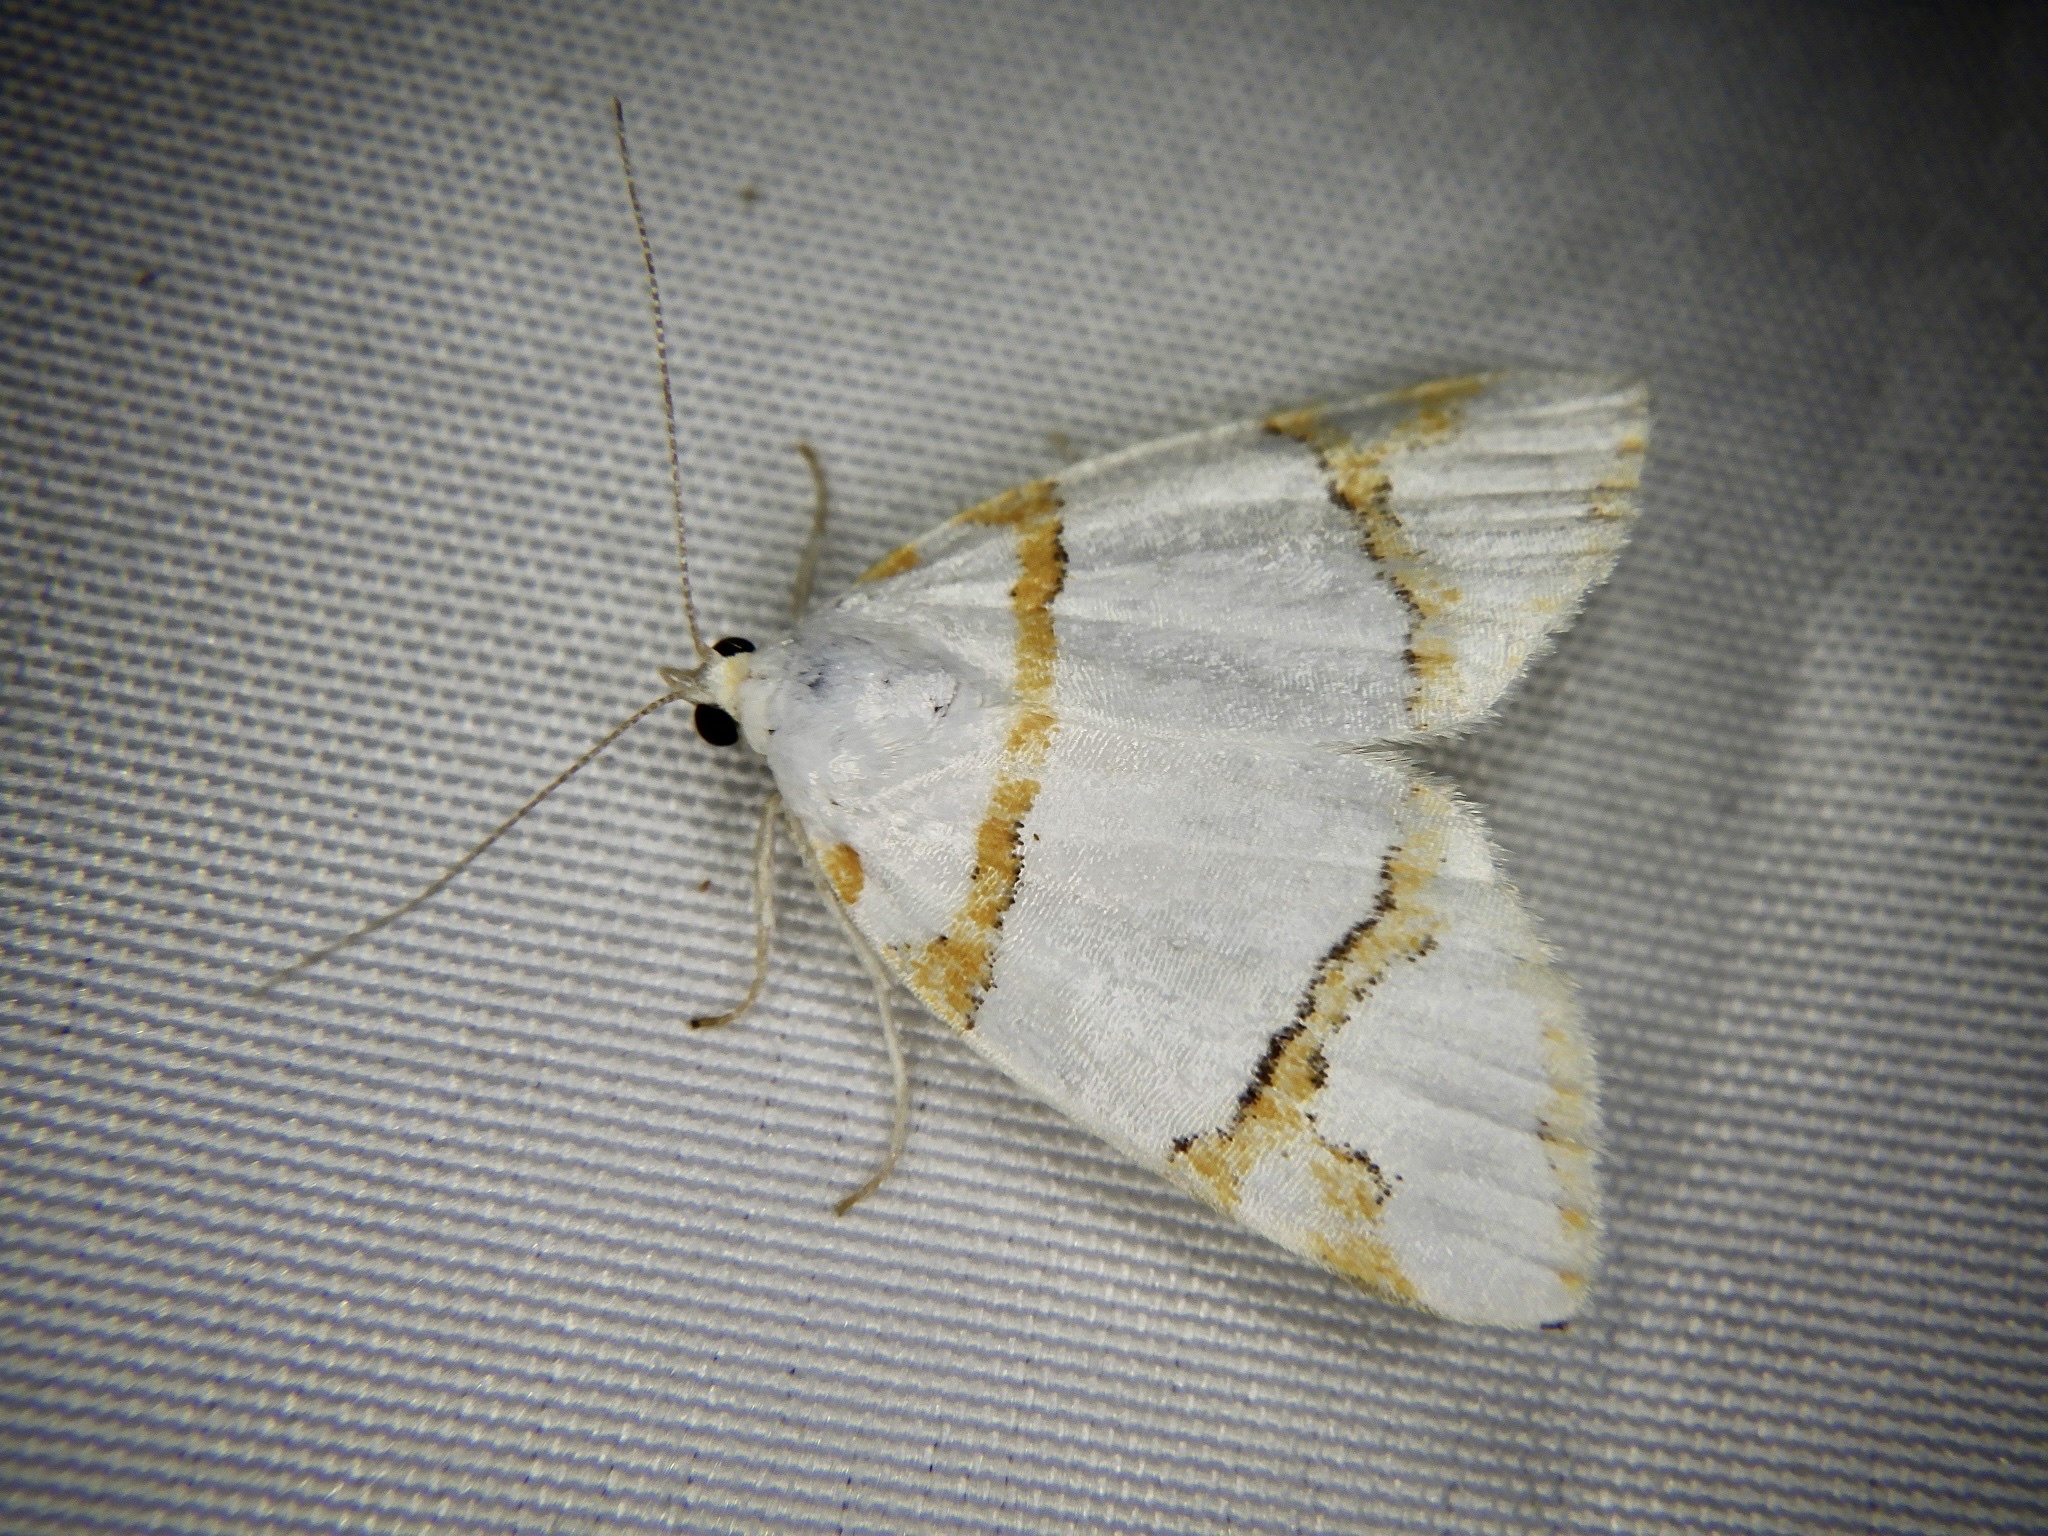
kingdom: Animalia
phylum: Arthropoda
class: Insecta
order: Lepidoptera
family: Nolidae
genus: Ariolica
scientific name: Ariolica argentea
